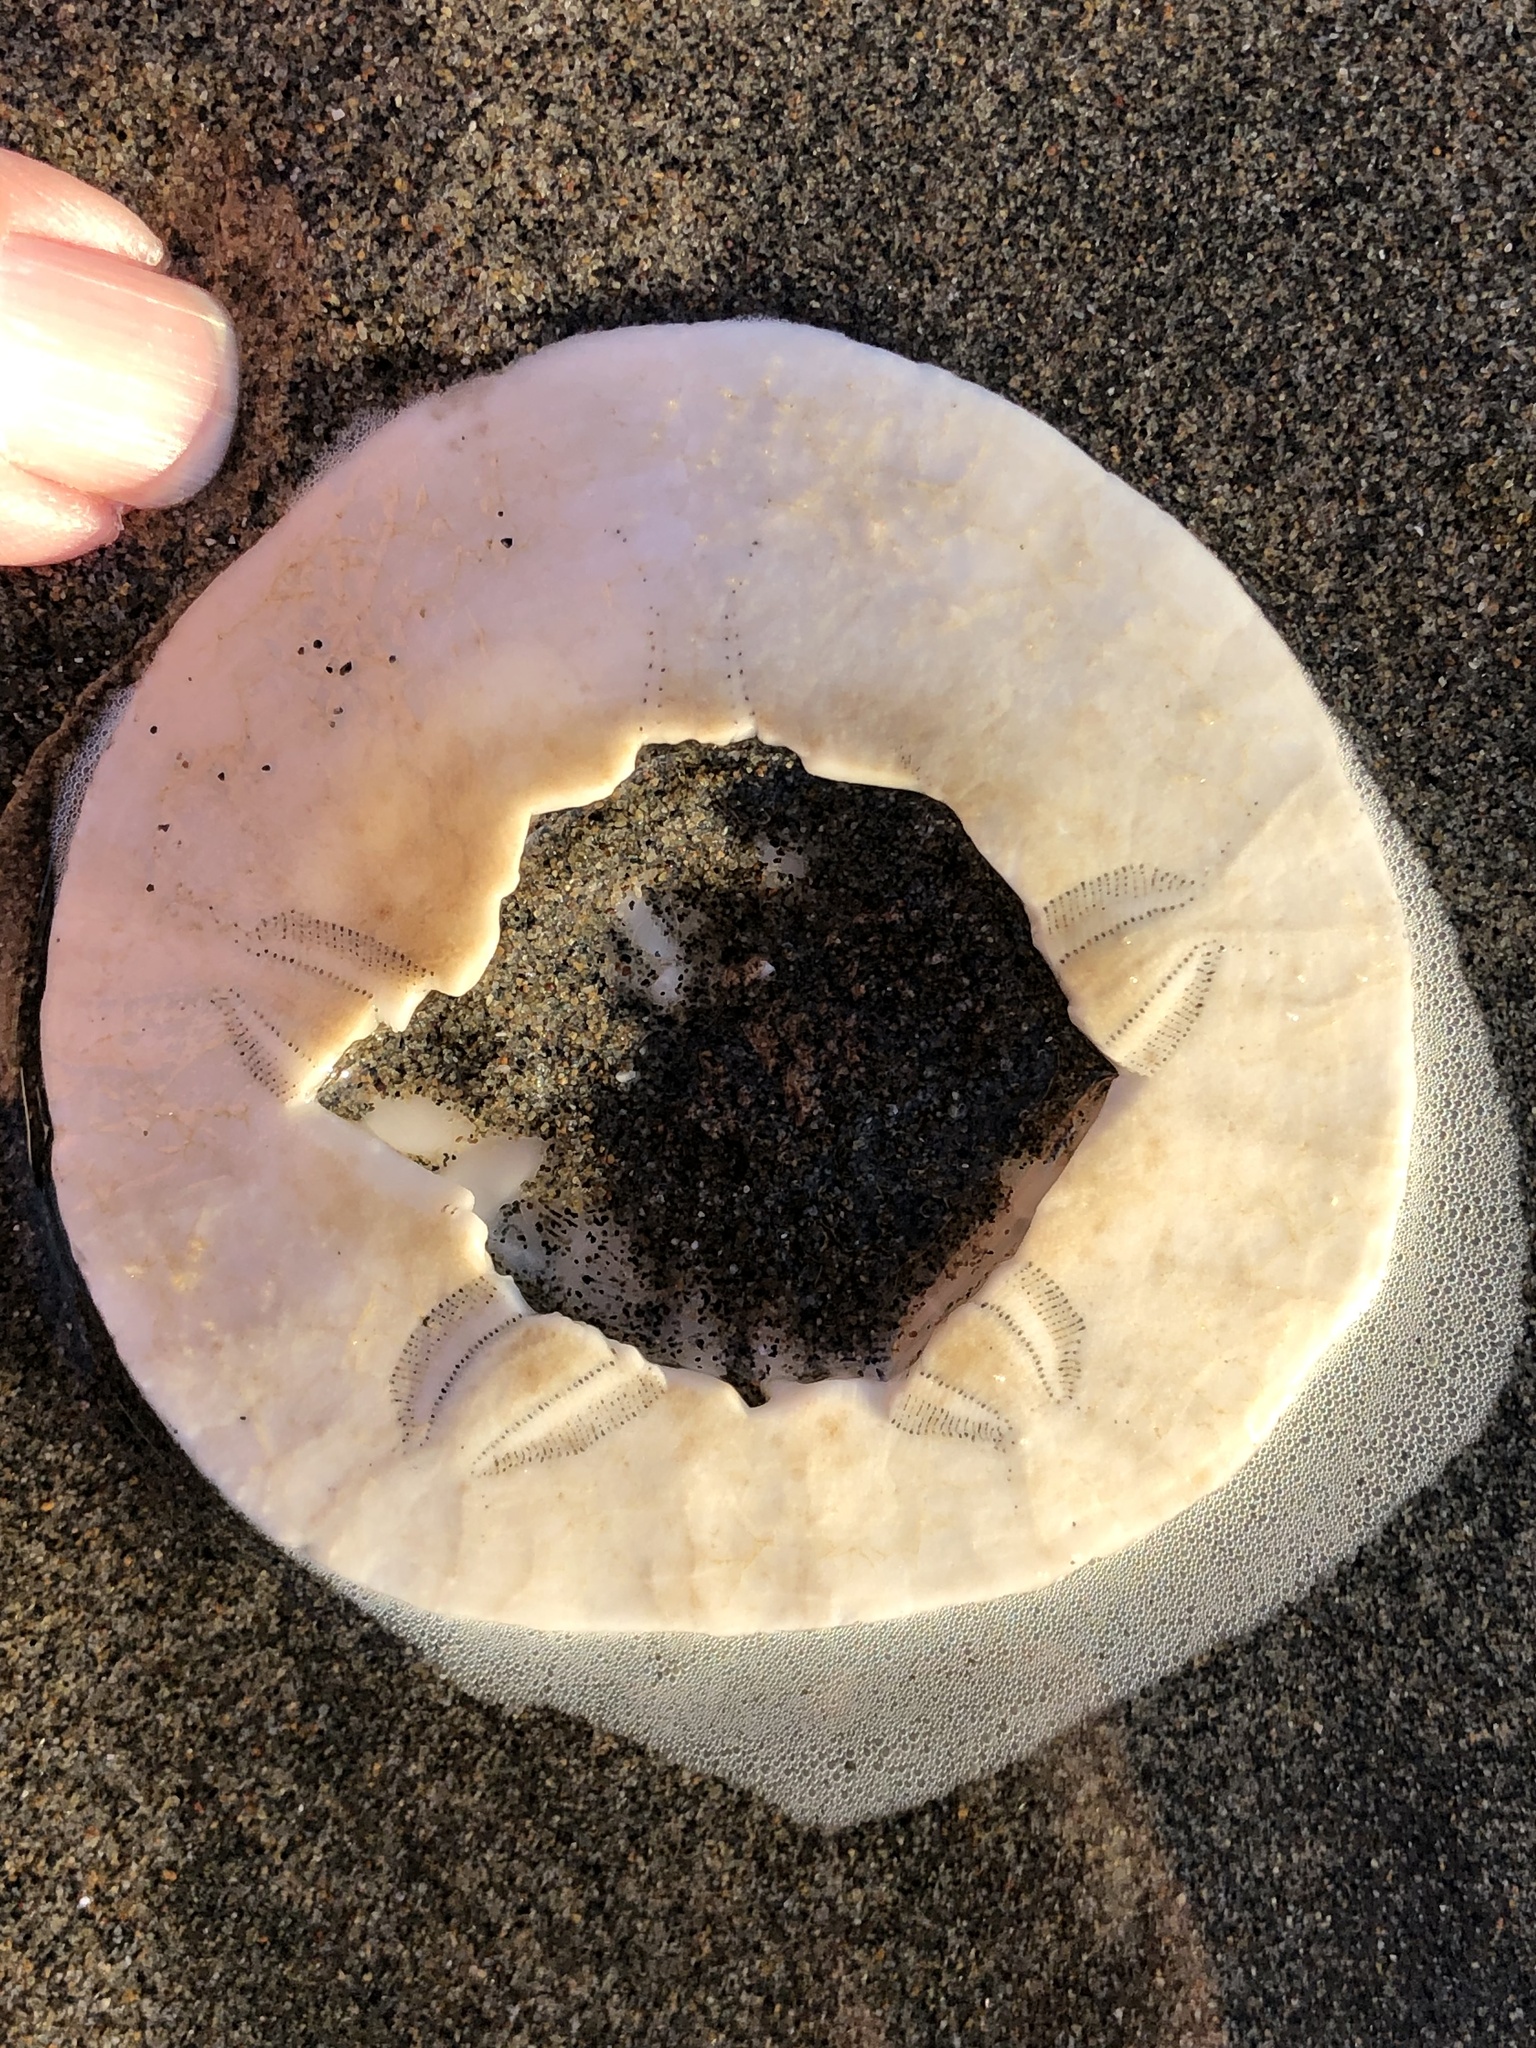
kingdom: Animalia
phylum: Echinodermata
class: Echinoidea
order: Echinolampadacea
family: Dendrasteridae
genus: Dendraster
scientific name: Dendraster excentricus
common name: Eccentric sand dollar sea urchin
